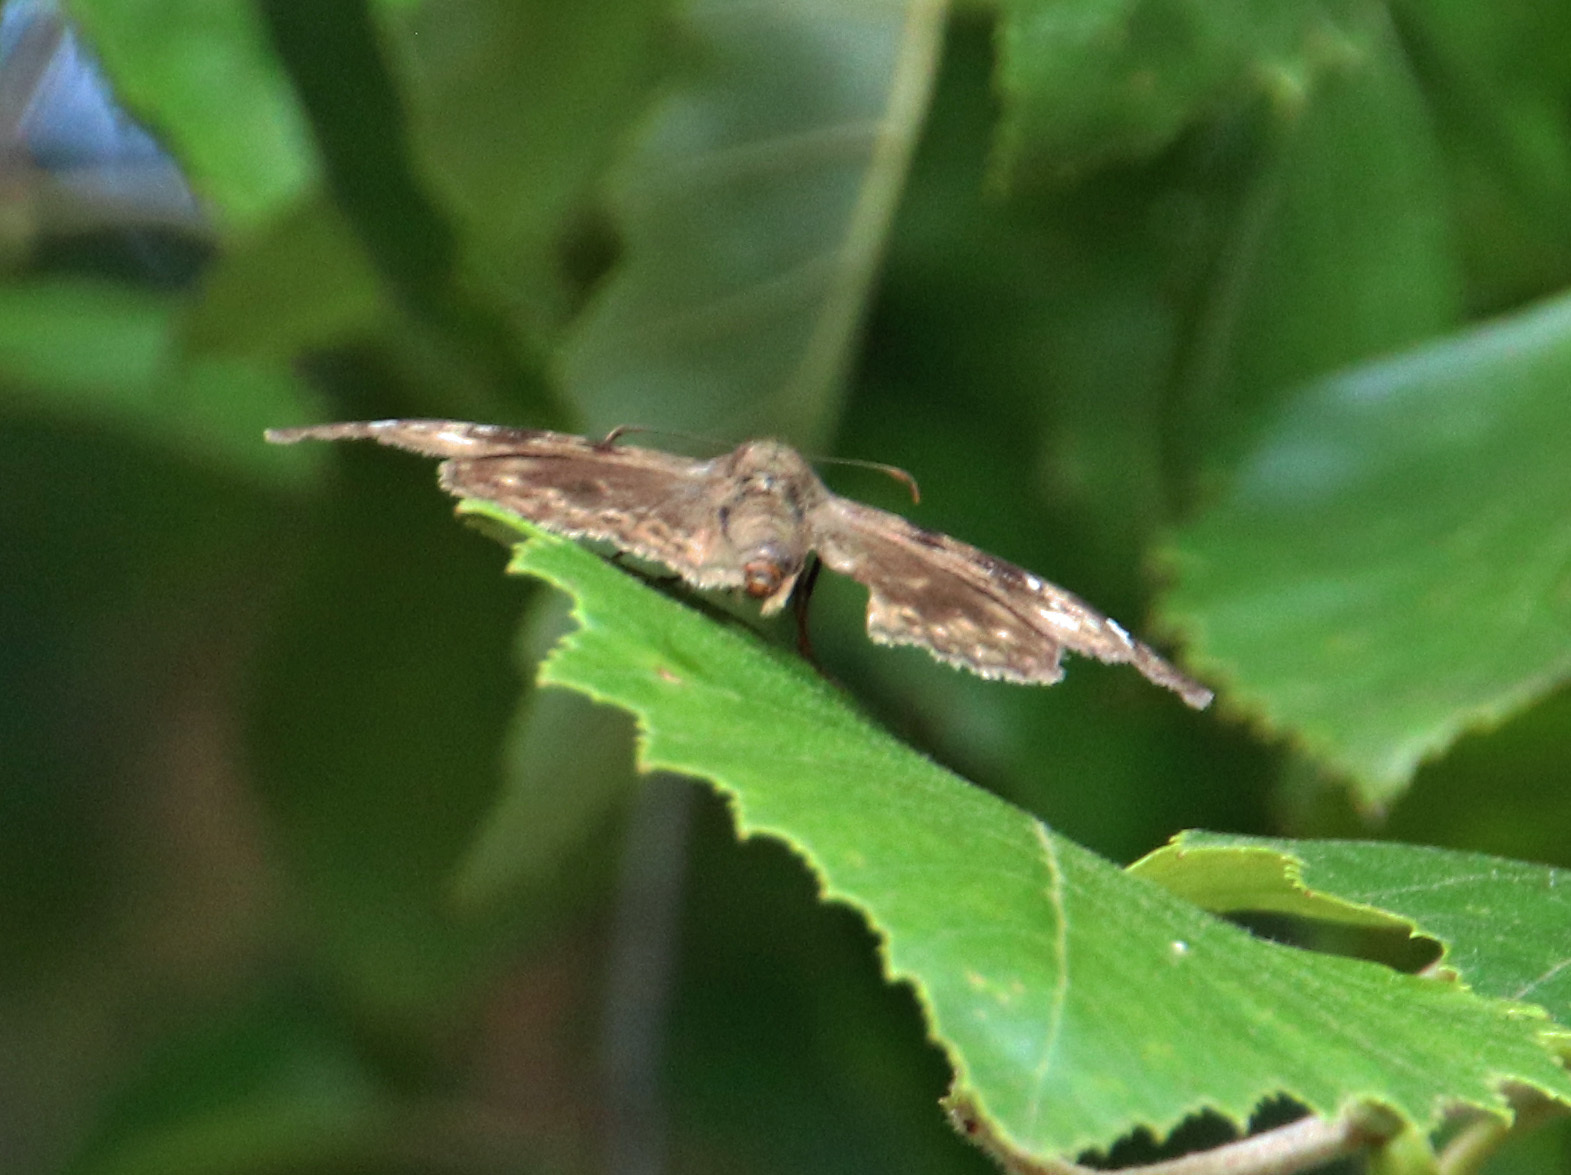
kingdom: Animalia
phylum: Arthropoda
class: Insecta
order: Lepidoptera
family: Hesperiidae
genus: Erynnis
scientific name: Erynnis horatius
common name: Horace's duskywing
